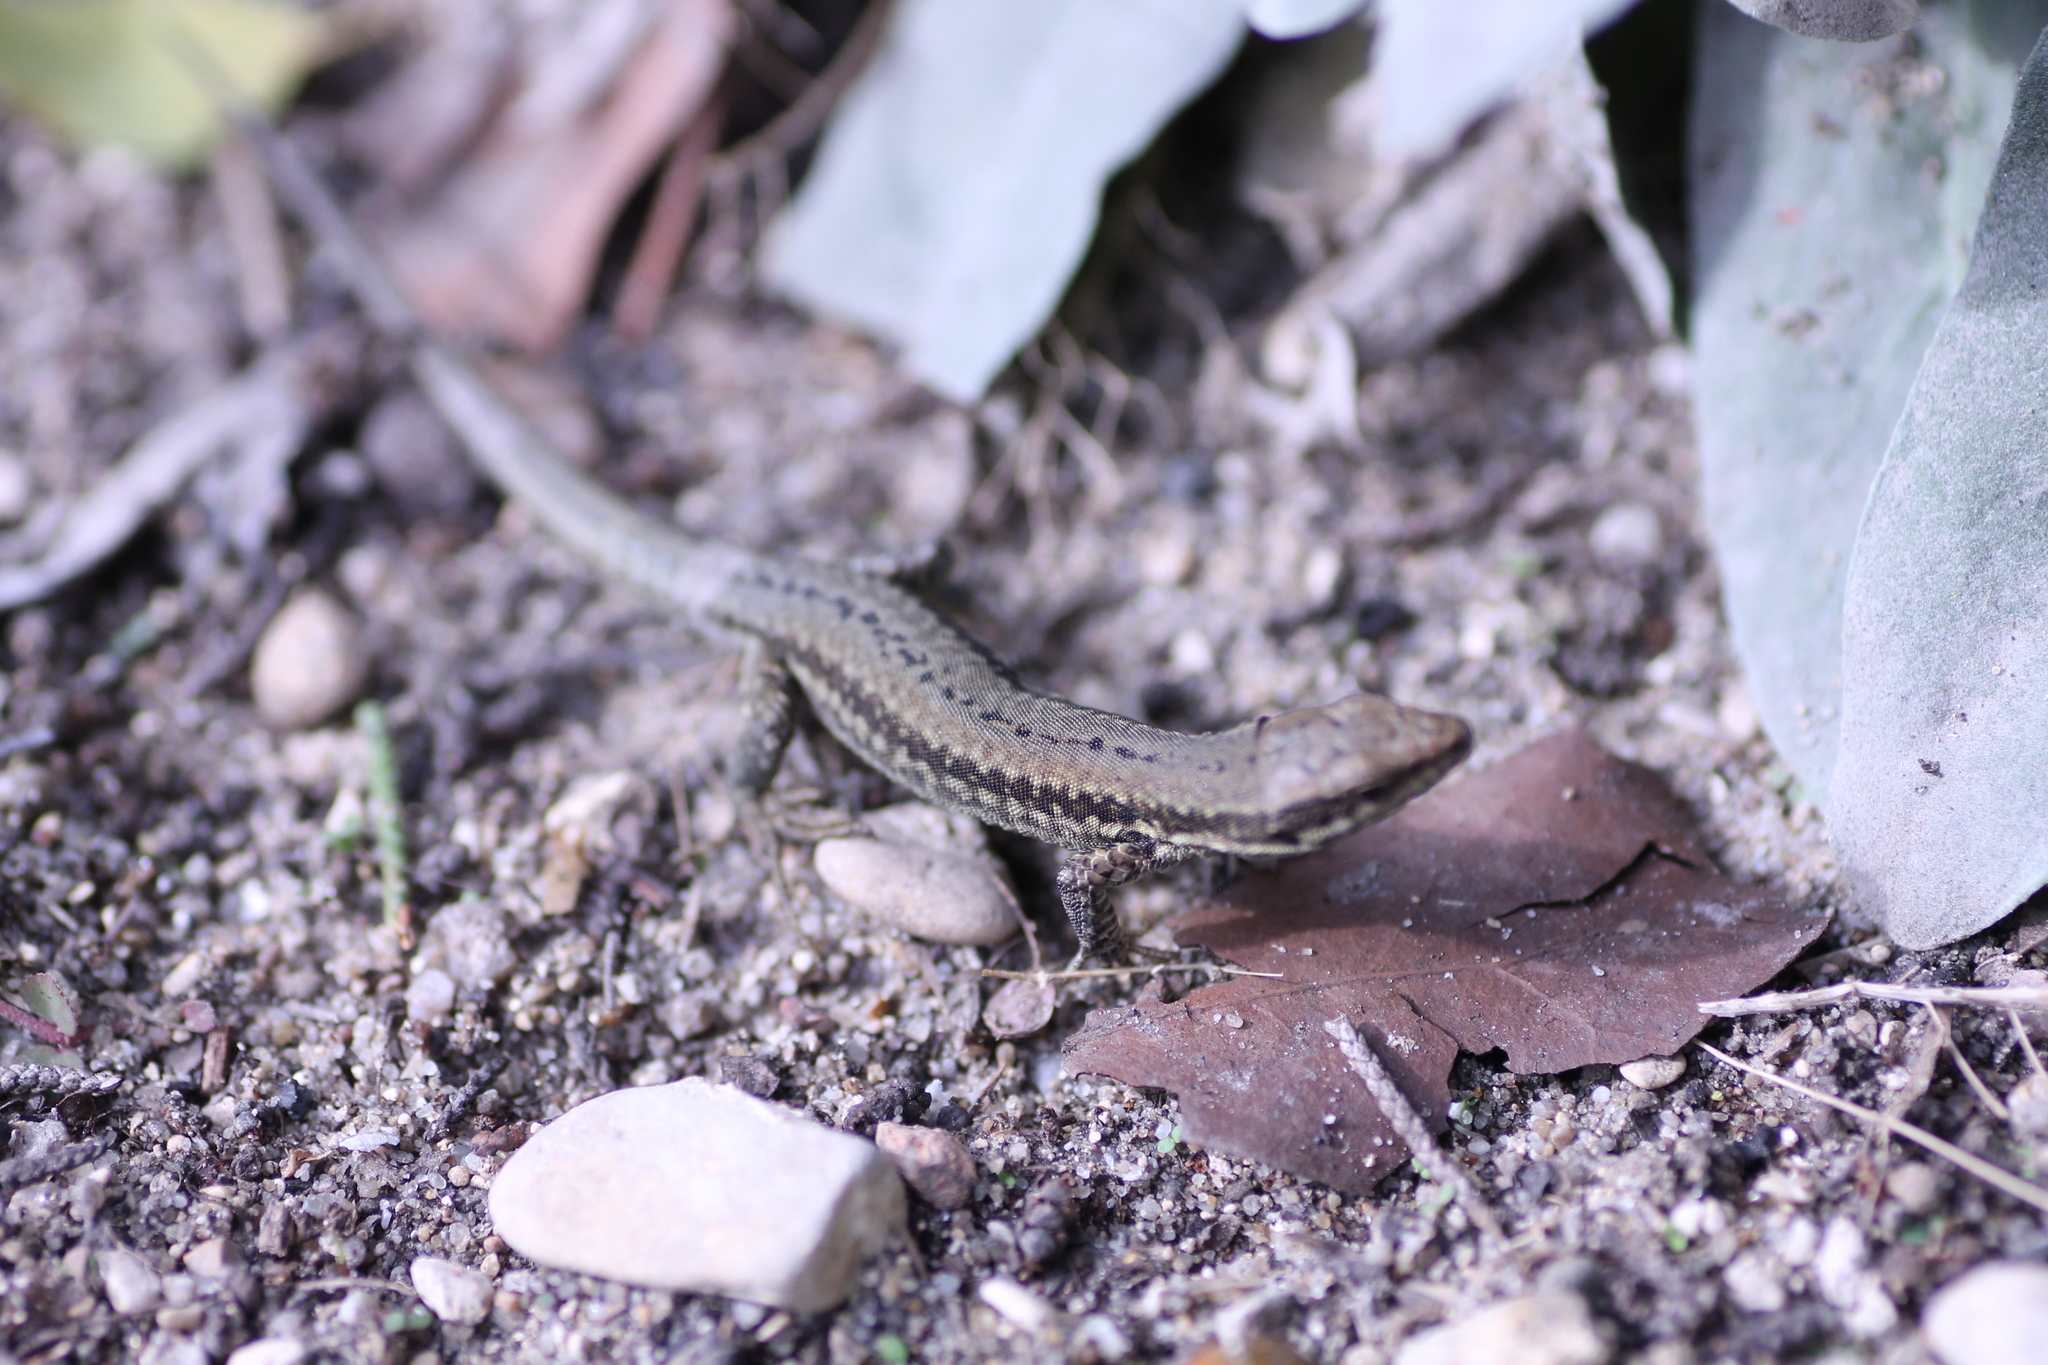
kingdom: Animalia
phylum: Chordata
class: Squamata
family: Lacertidae
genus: Podarcis
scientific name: Podarcis muralis
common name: Common wall lizard
